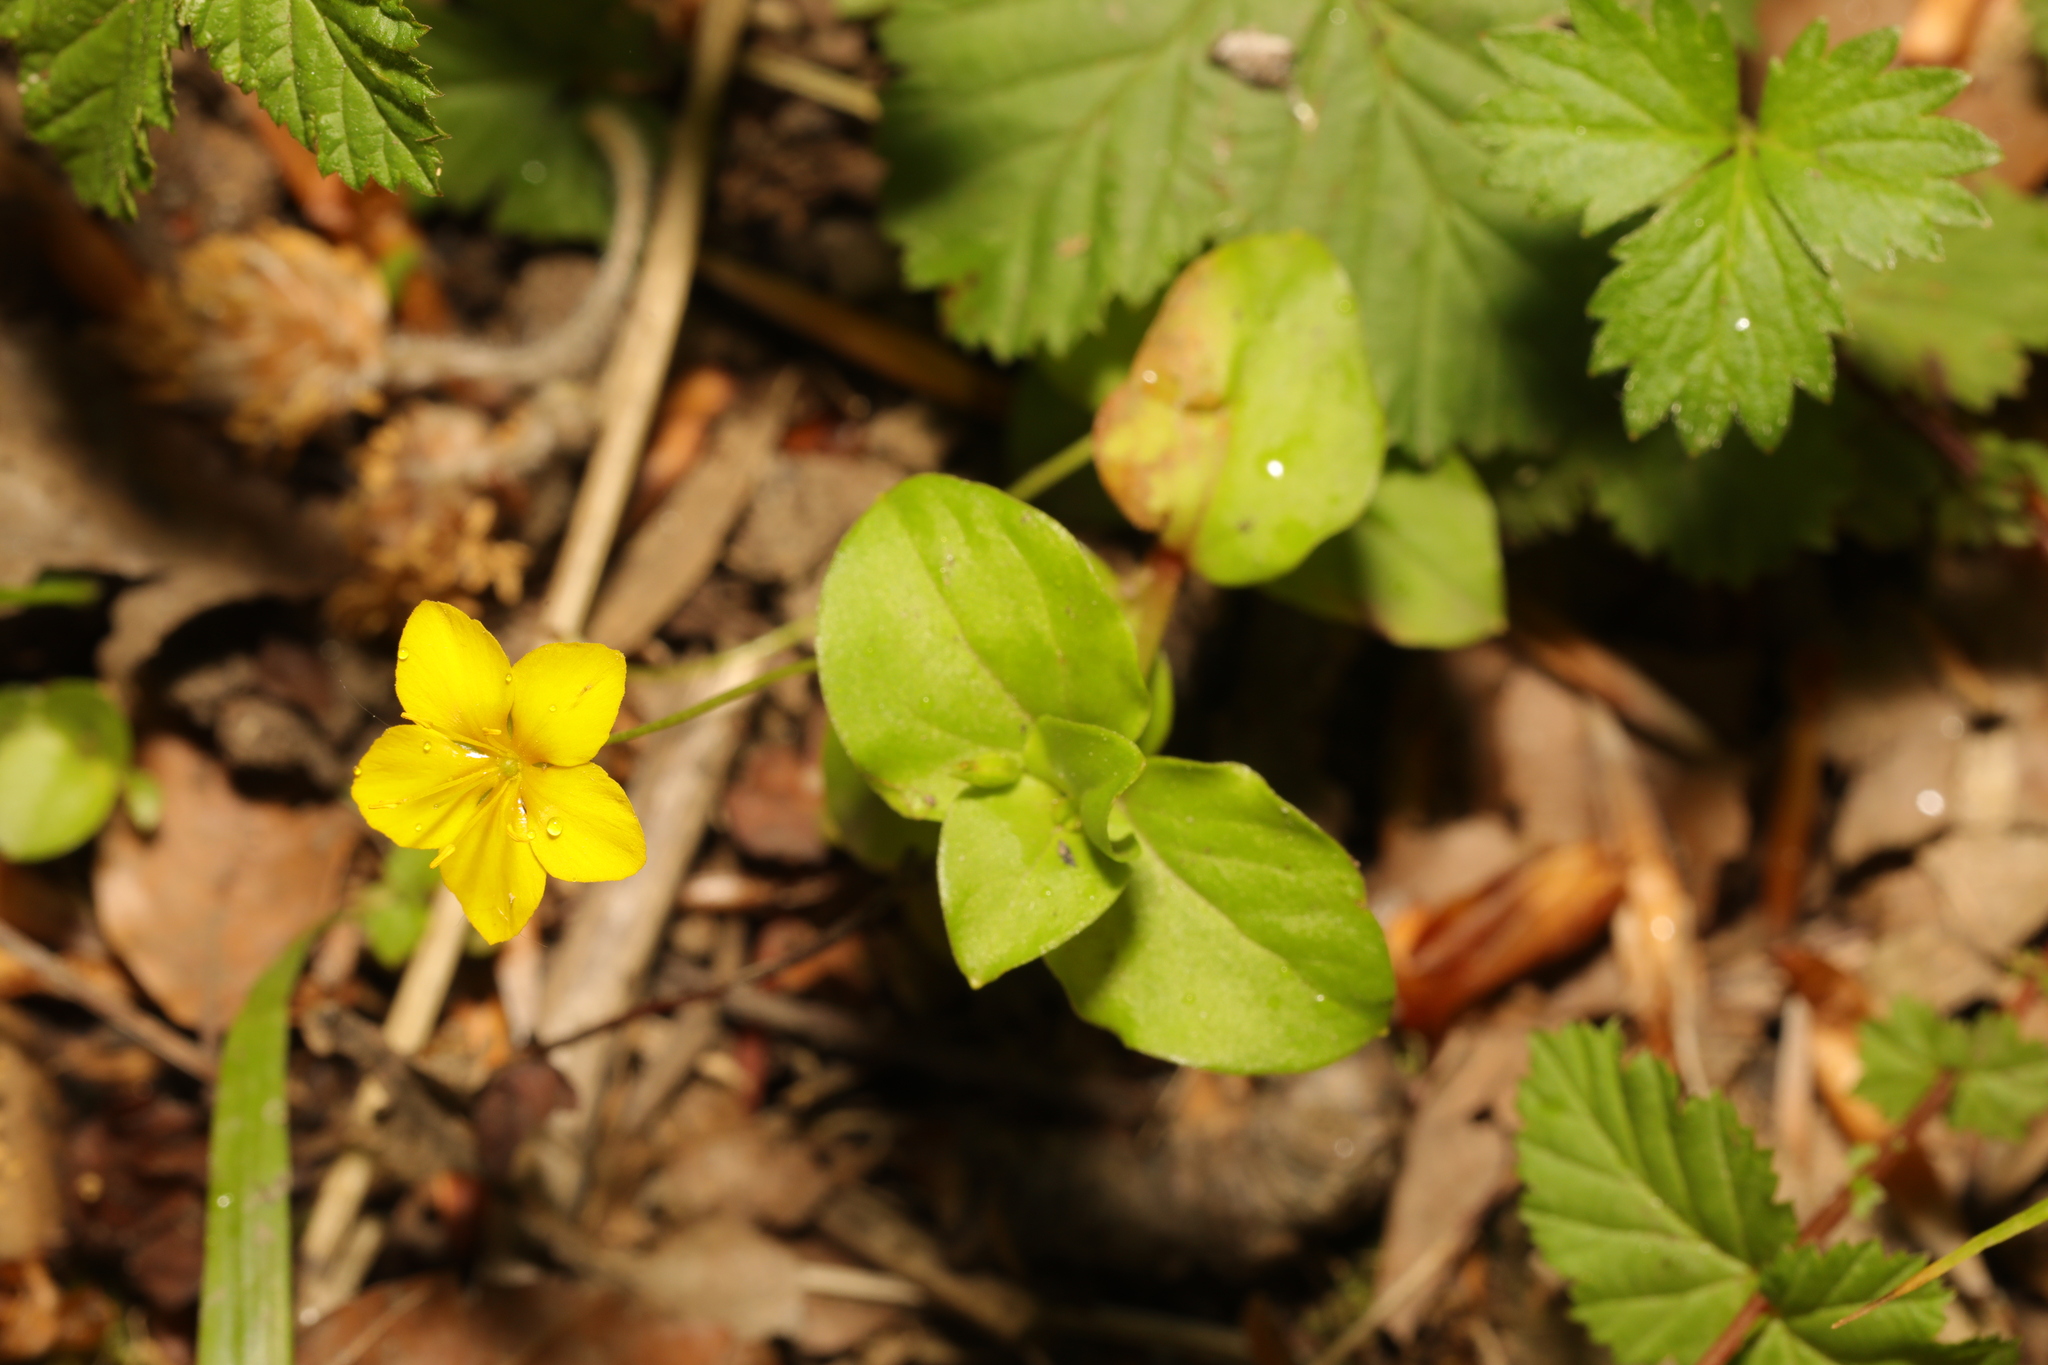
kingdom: Plantae
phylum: Tracheophyta
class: Magnoliopsida
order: Ericales
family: Primulaceae
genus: Lysimachia
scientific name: Lysimachia nemorum
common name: Yellow pimpernel
